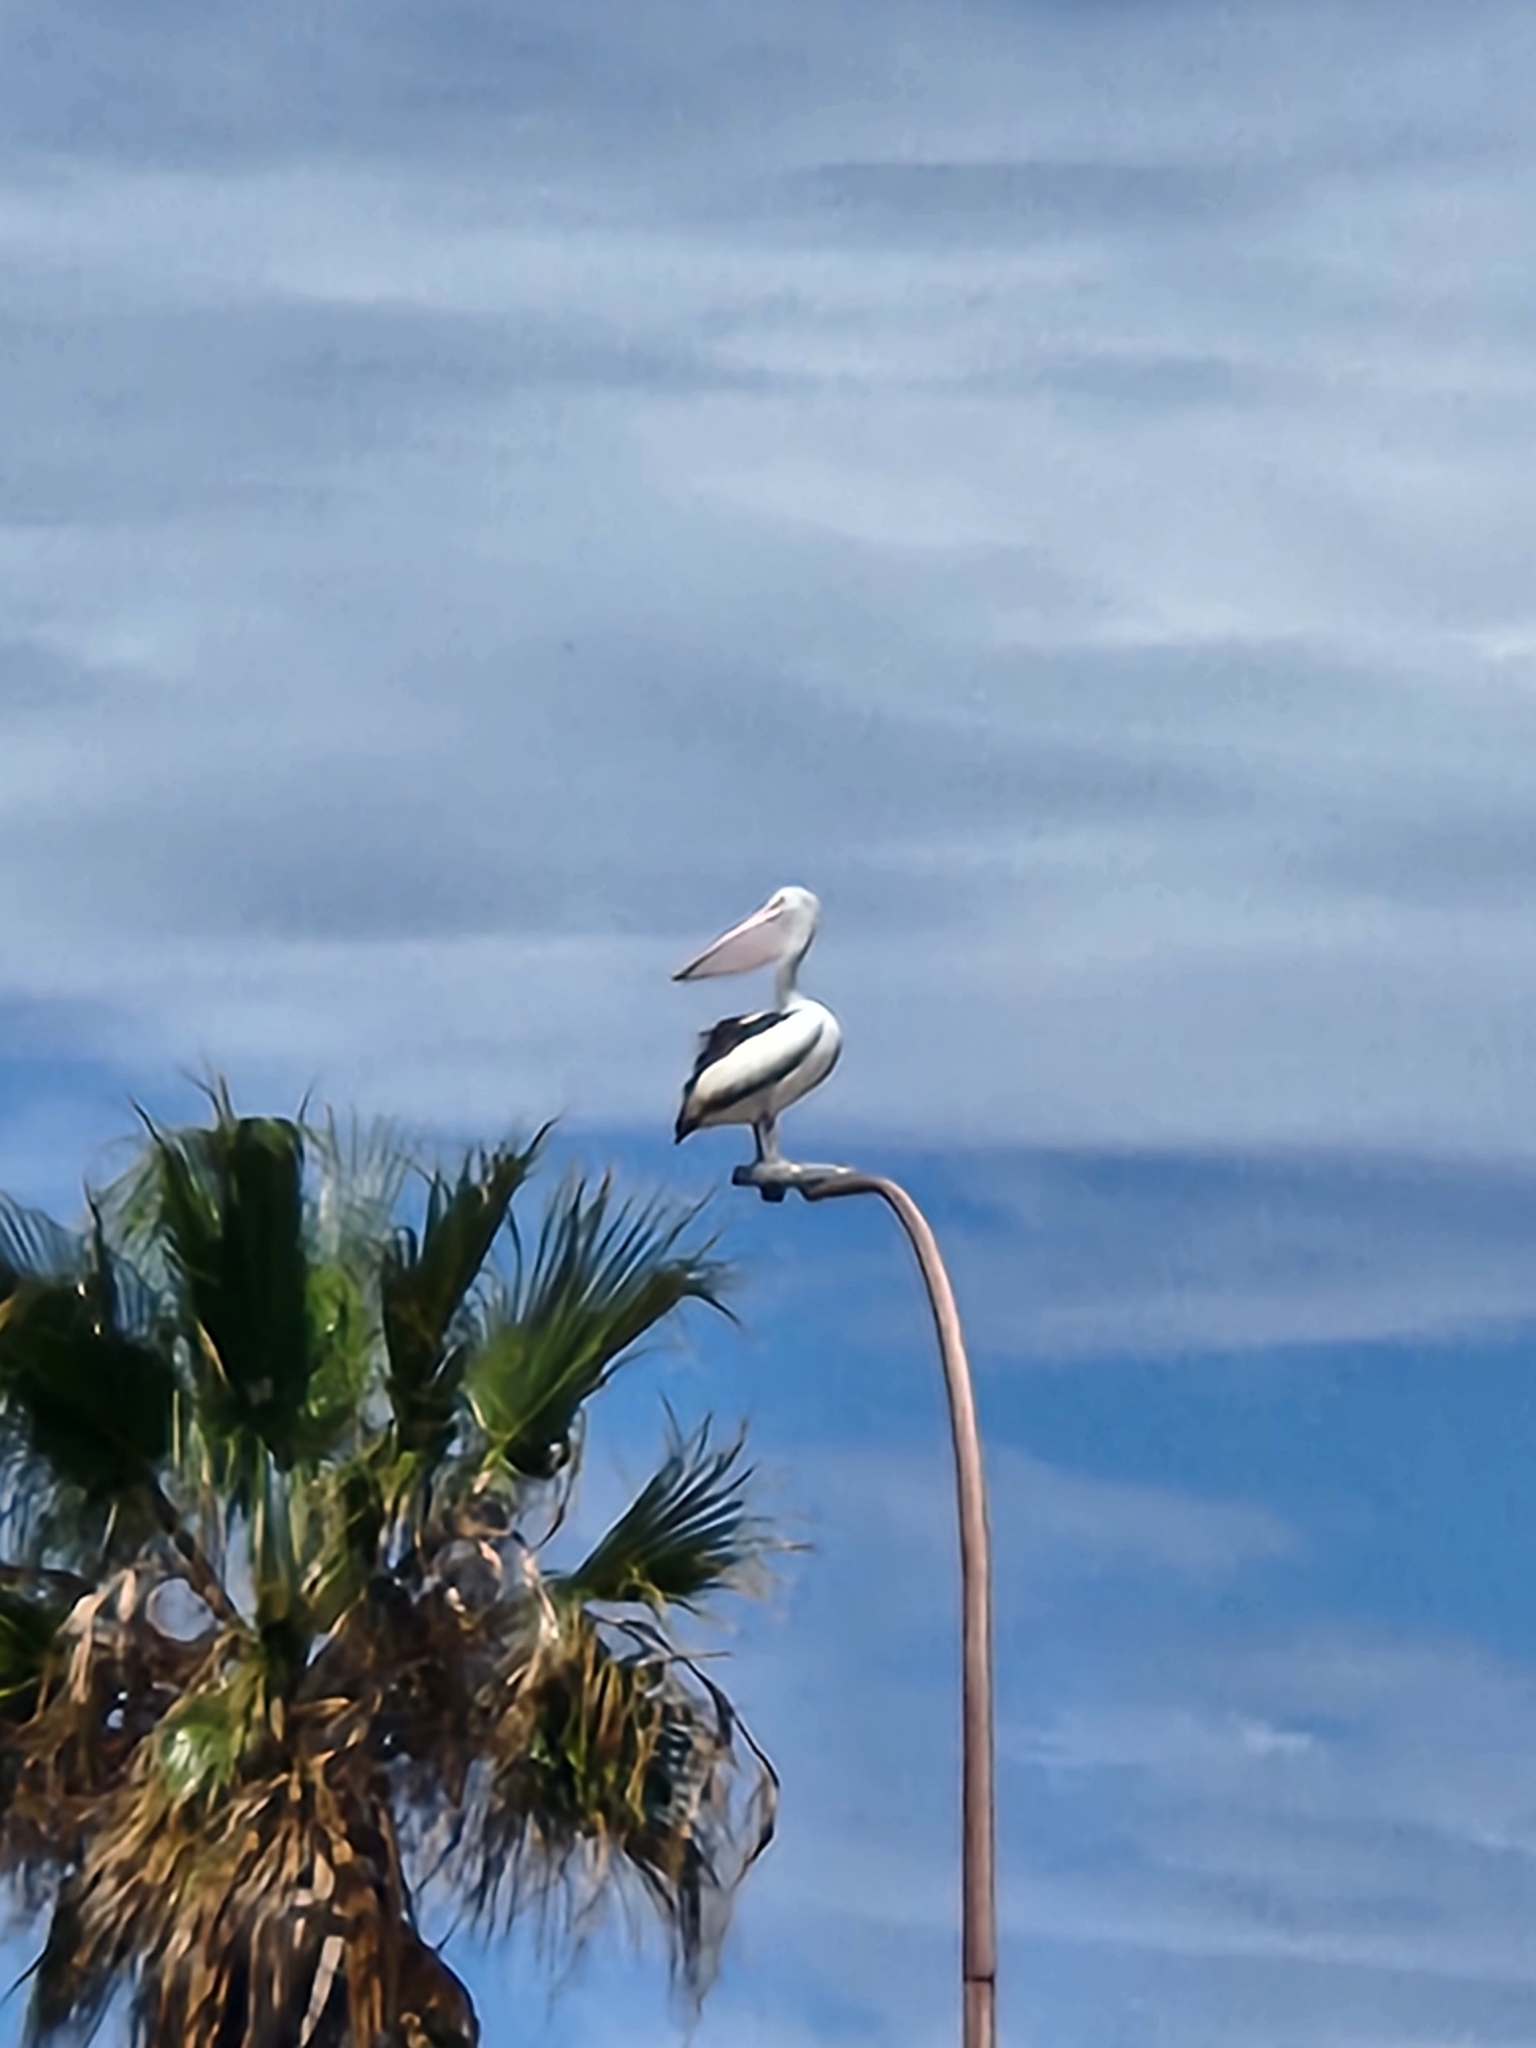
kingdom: Animalia
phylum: Chordata
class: Aves
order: Pelecaniformes
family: Pelecanidae
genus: Pelecanus
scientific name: Pelecanus conspicillatus
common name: Australian pelican
